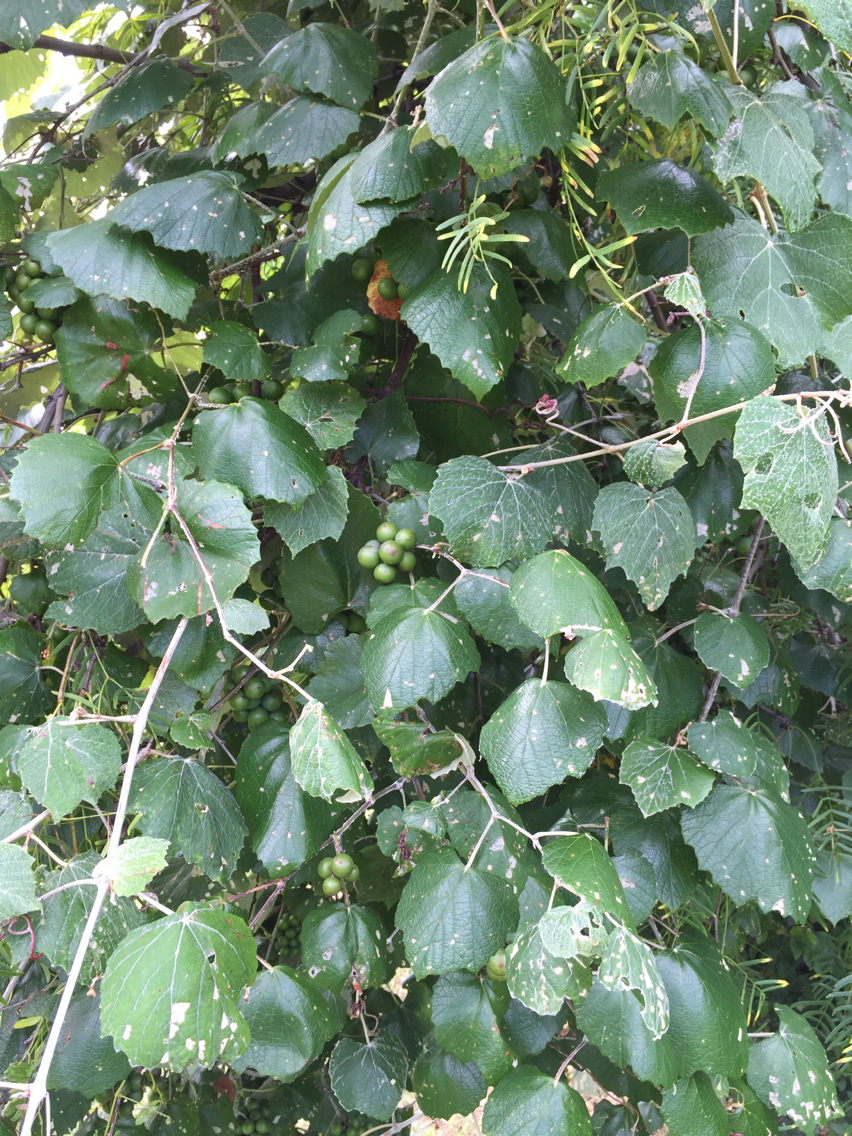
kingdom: Plantae
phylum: Tracheophyta
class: Magnoliopsida
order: Vitales
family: Vitaceae
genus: Vitis
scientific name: Vitis mustangensis
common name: Mustang grape
